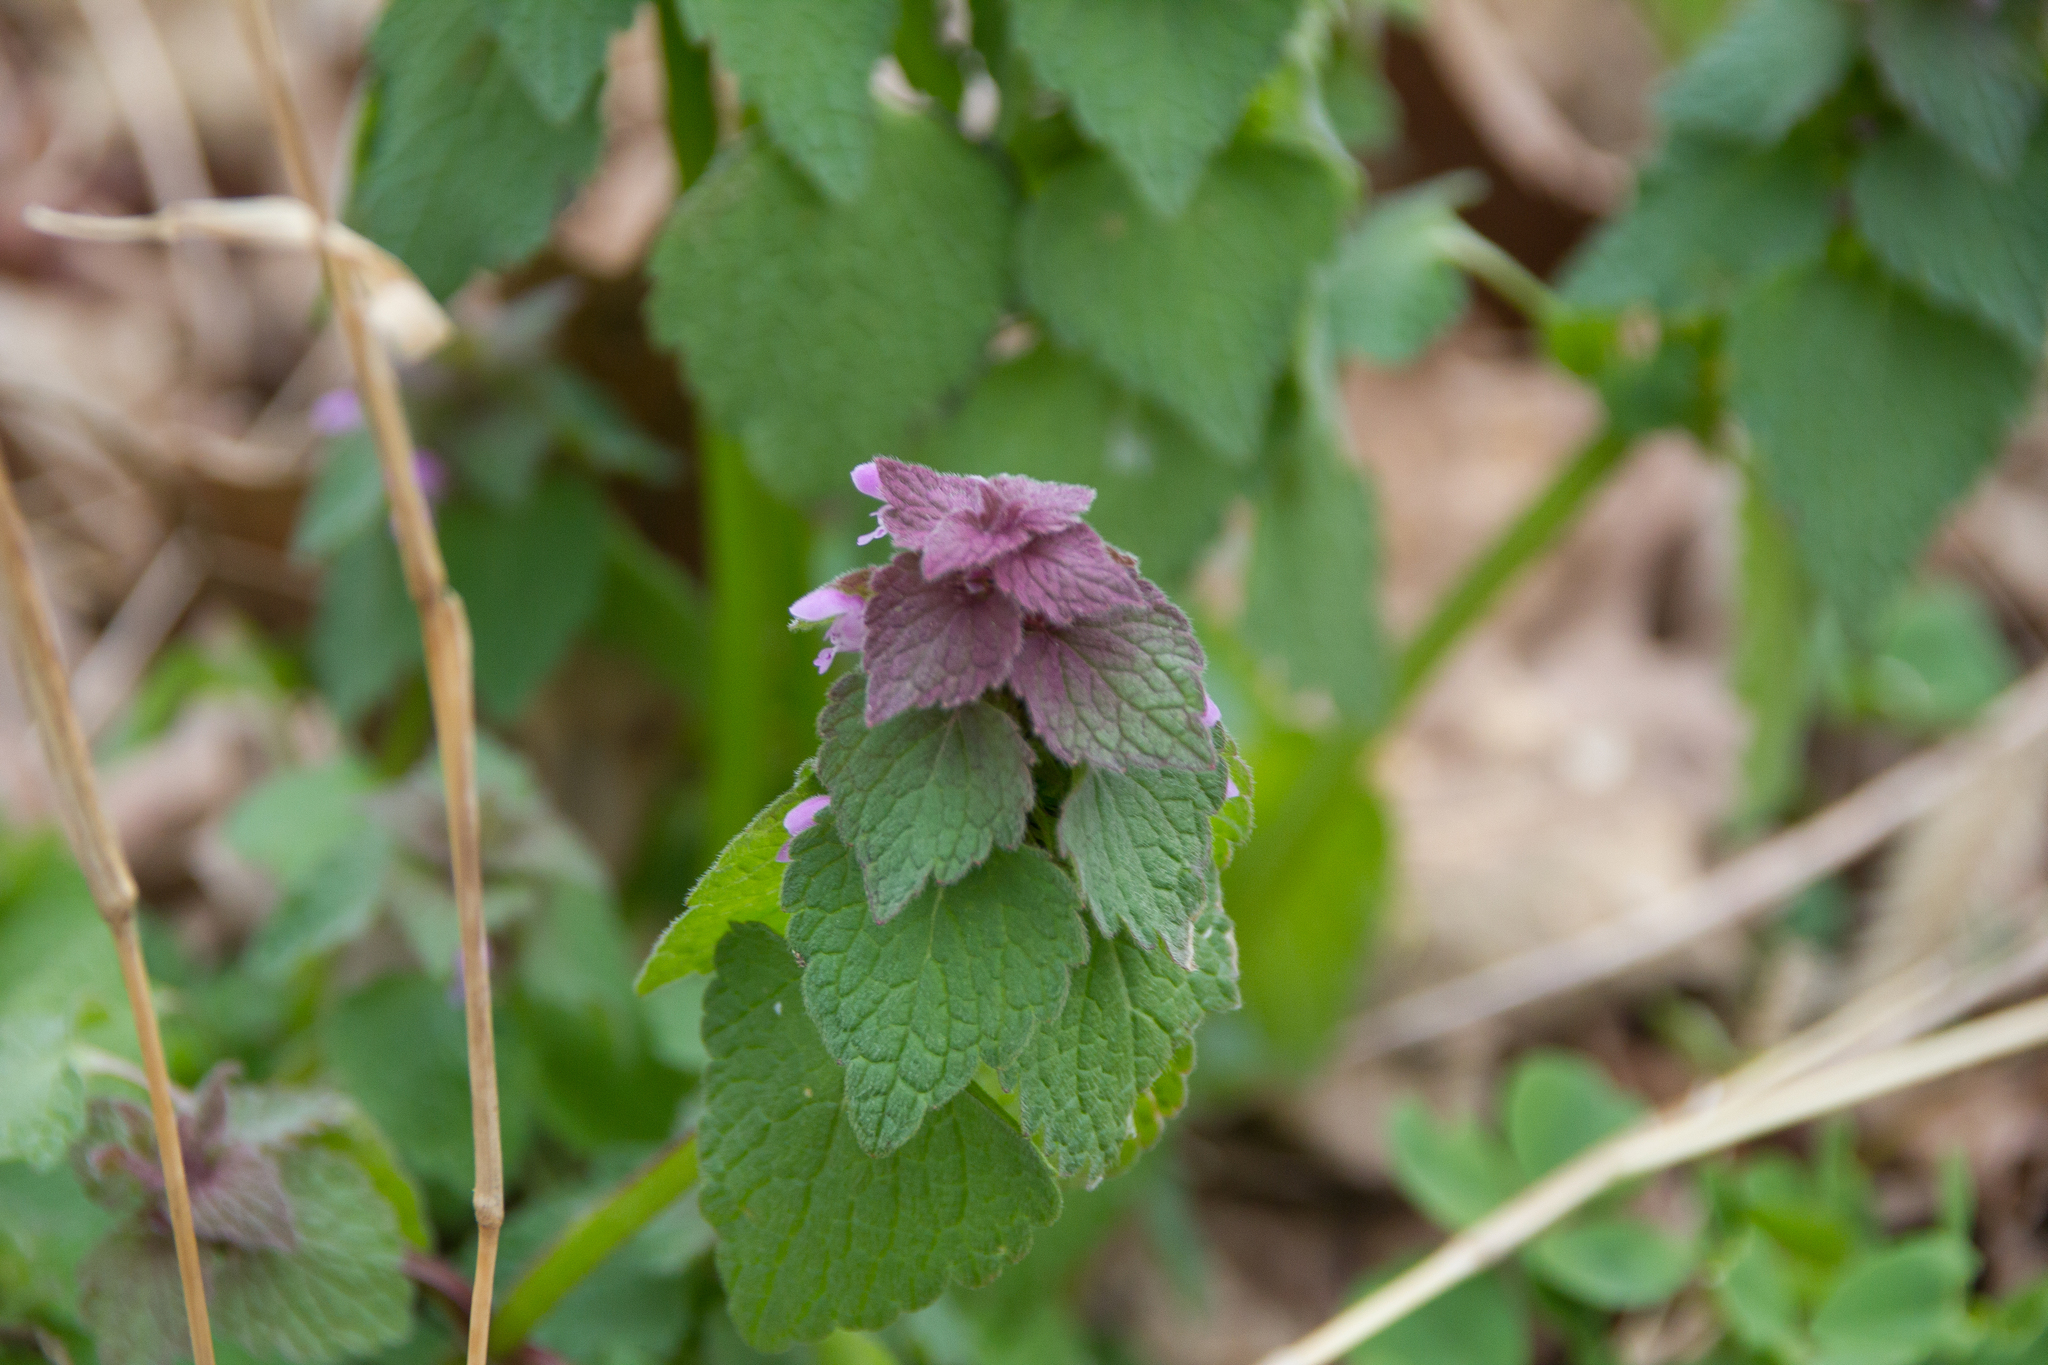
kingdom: Plantae
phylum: Tracheophyta
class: Magnoliopsida
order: Lamiales
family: Lamiaceae
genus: Lamium
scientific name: Lamium purpureum
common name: Red dead-nettle
